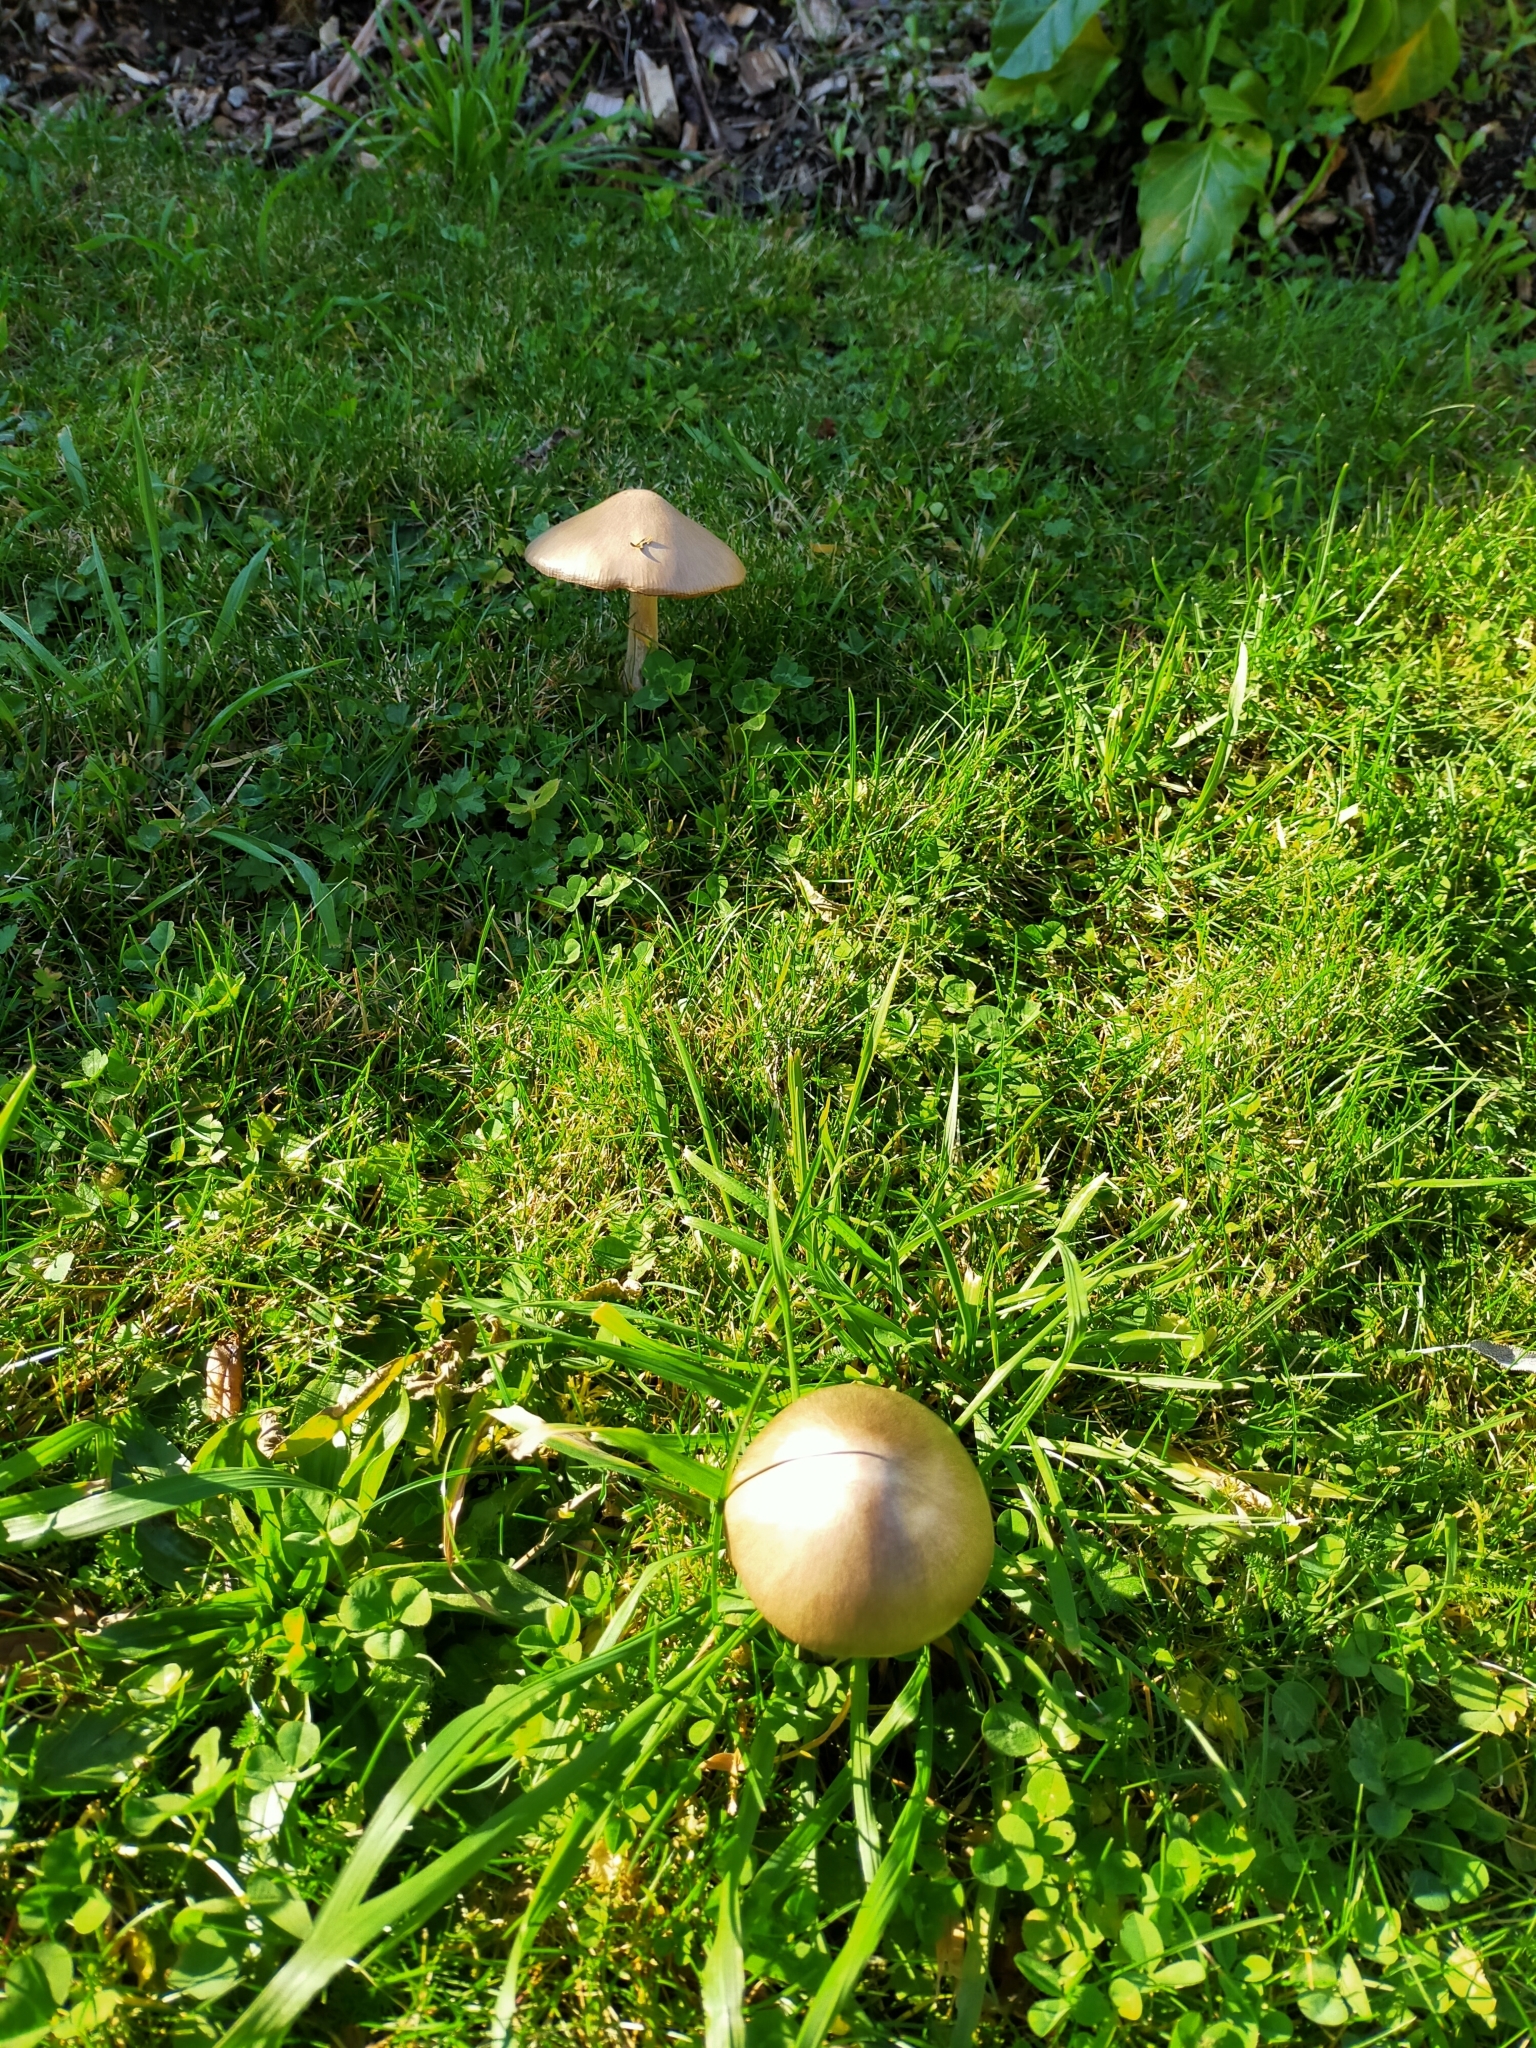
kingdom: Fungi
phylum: Basidiomycota
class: Agaricomycetes
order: Agaricales
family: Pluteaceae
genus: Volvopluteus
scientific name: Volvopluteus gloiocephalus
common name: Stubble rosegill
